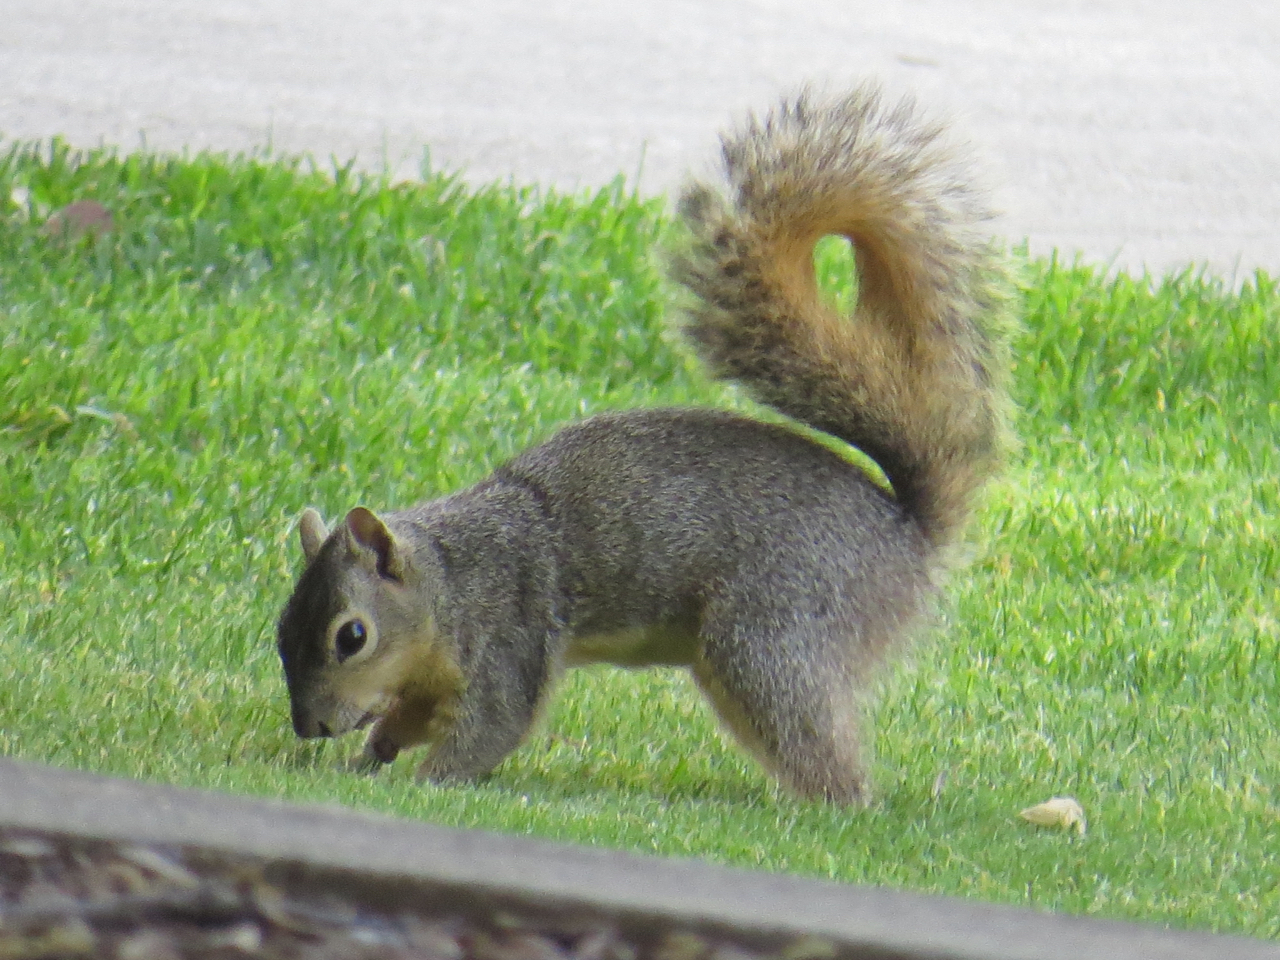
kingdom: Animalia
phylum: Chordata
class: Mammalia
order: Rodentia
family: Sciuridae
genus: Sciurus
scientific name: Sciurus niger
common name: Fox squirrel
